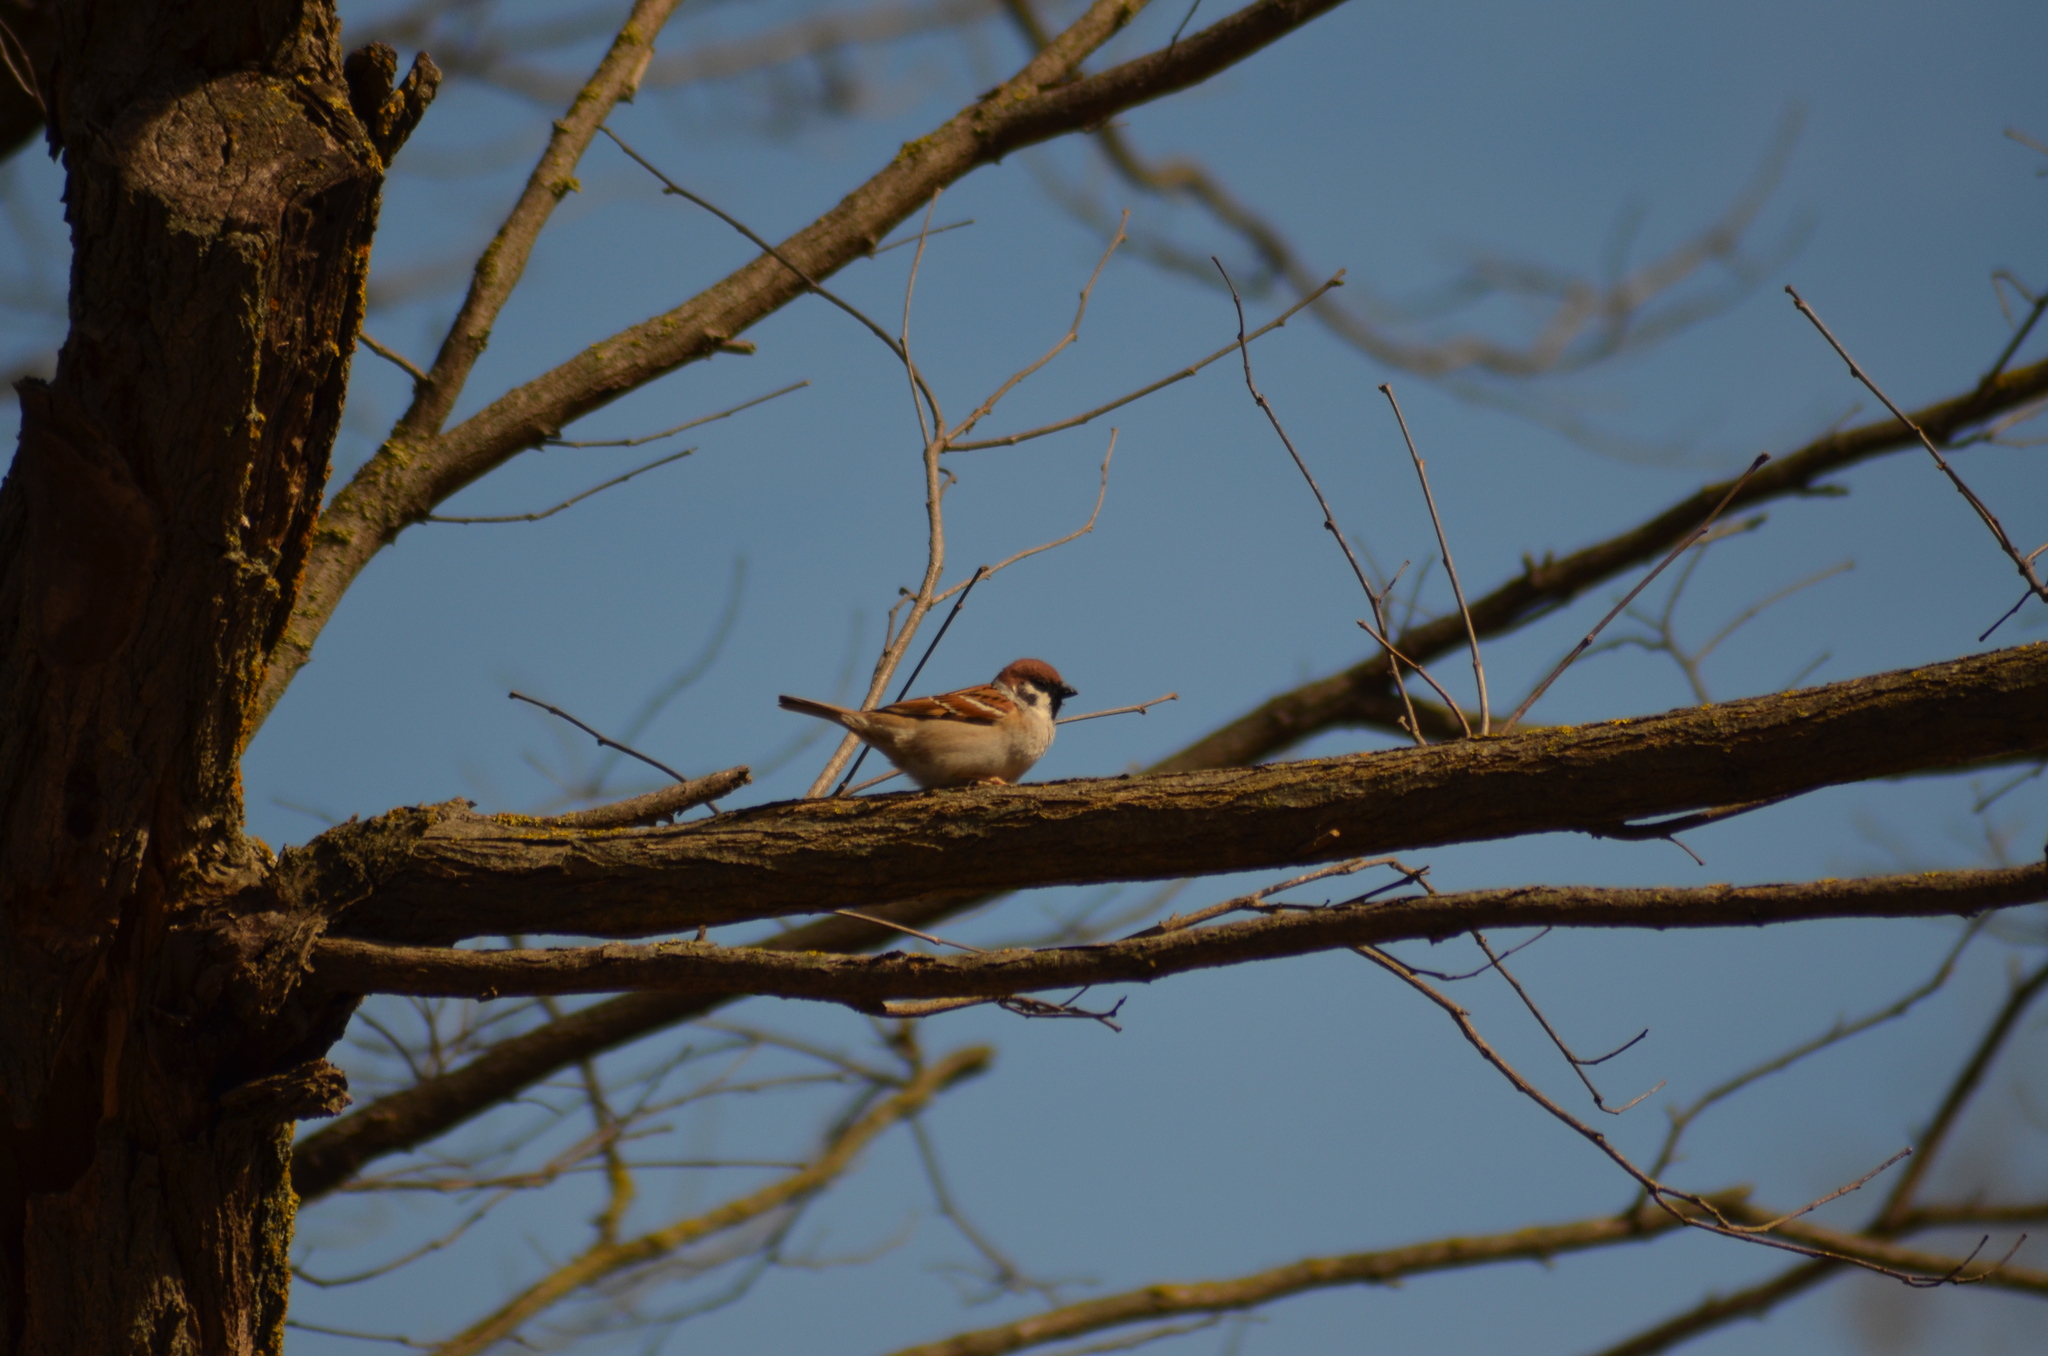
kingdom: Animalia
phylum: Chordata
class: Aves
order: Passeriformes
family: Passeridae
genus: Passer
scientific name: Passer montanus
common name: Eurasian tree sparrow
